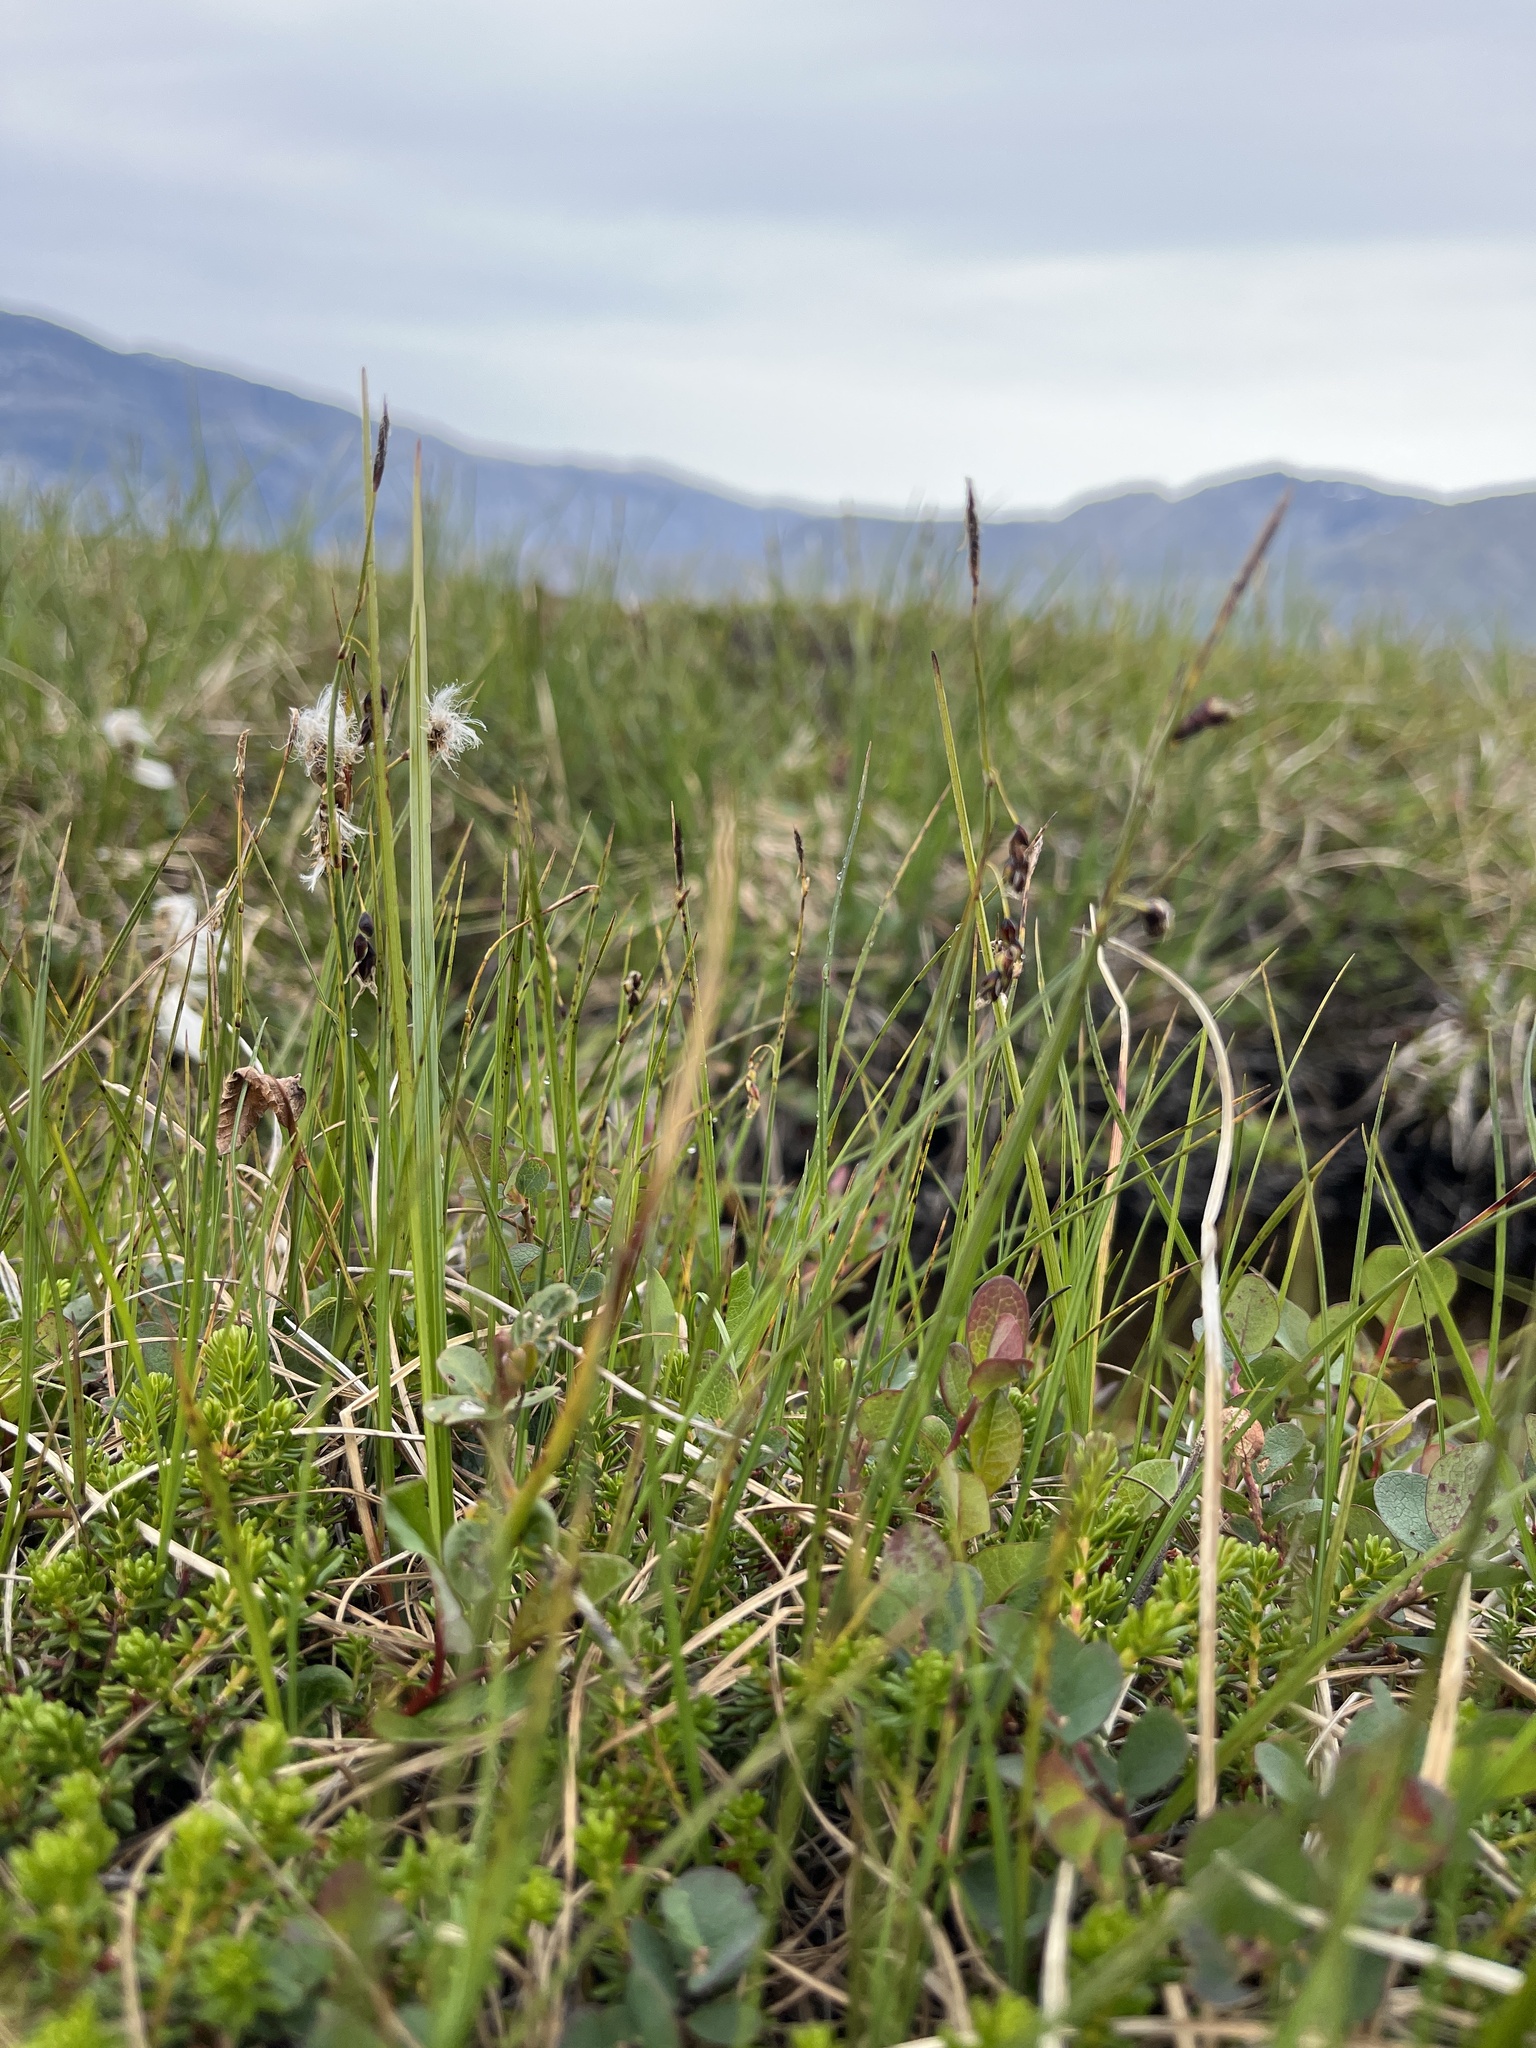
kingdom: Plantae
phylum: Tracheophyta
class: Liliopsida
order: Poales
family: Cyperaceae
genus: Carex
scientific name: Carex rariflora
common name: Loose-flowered alpine sedge
